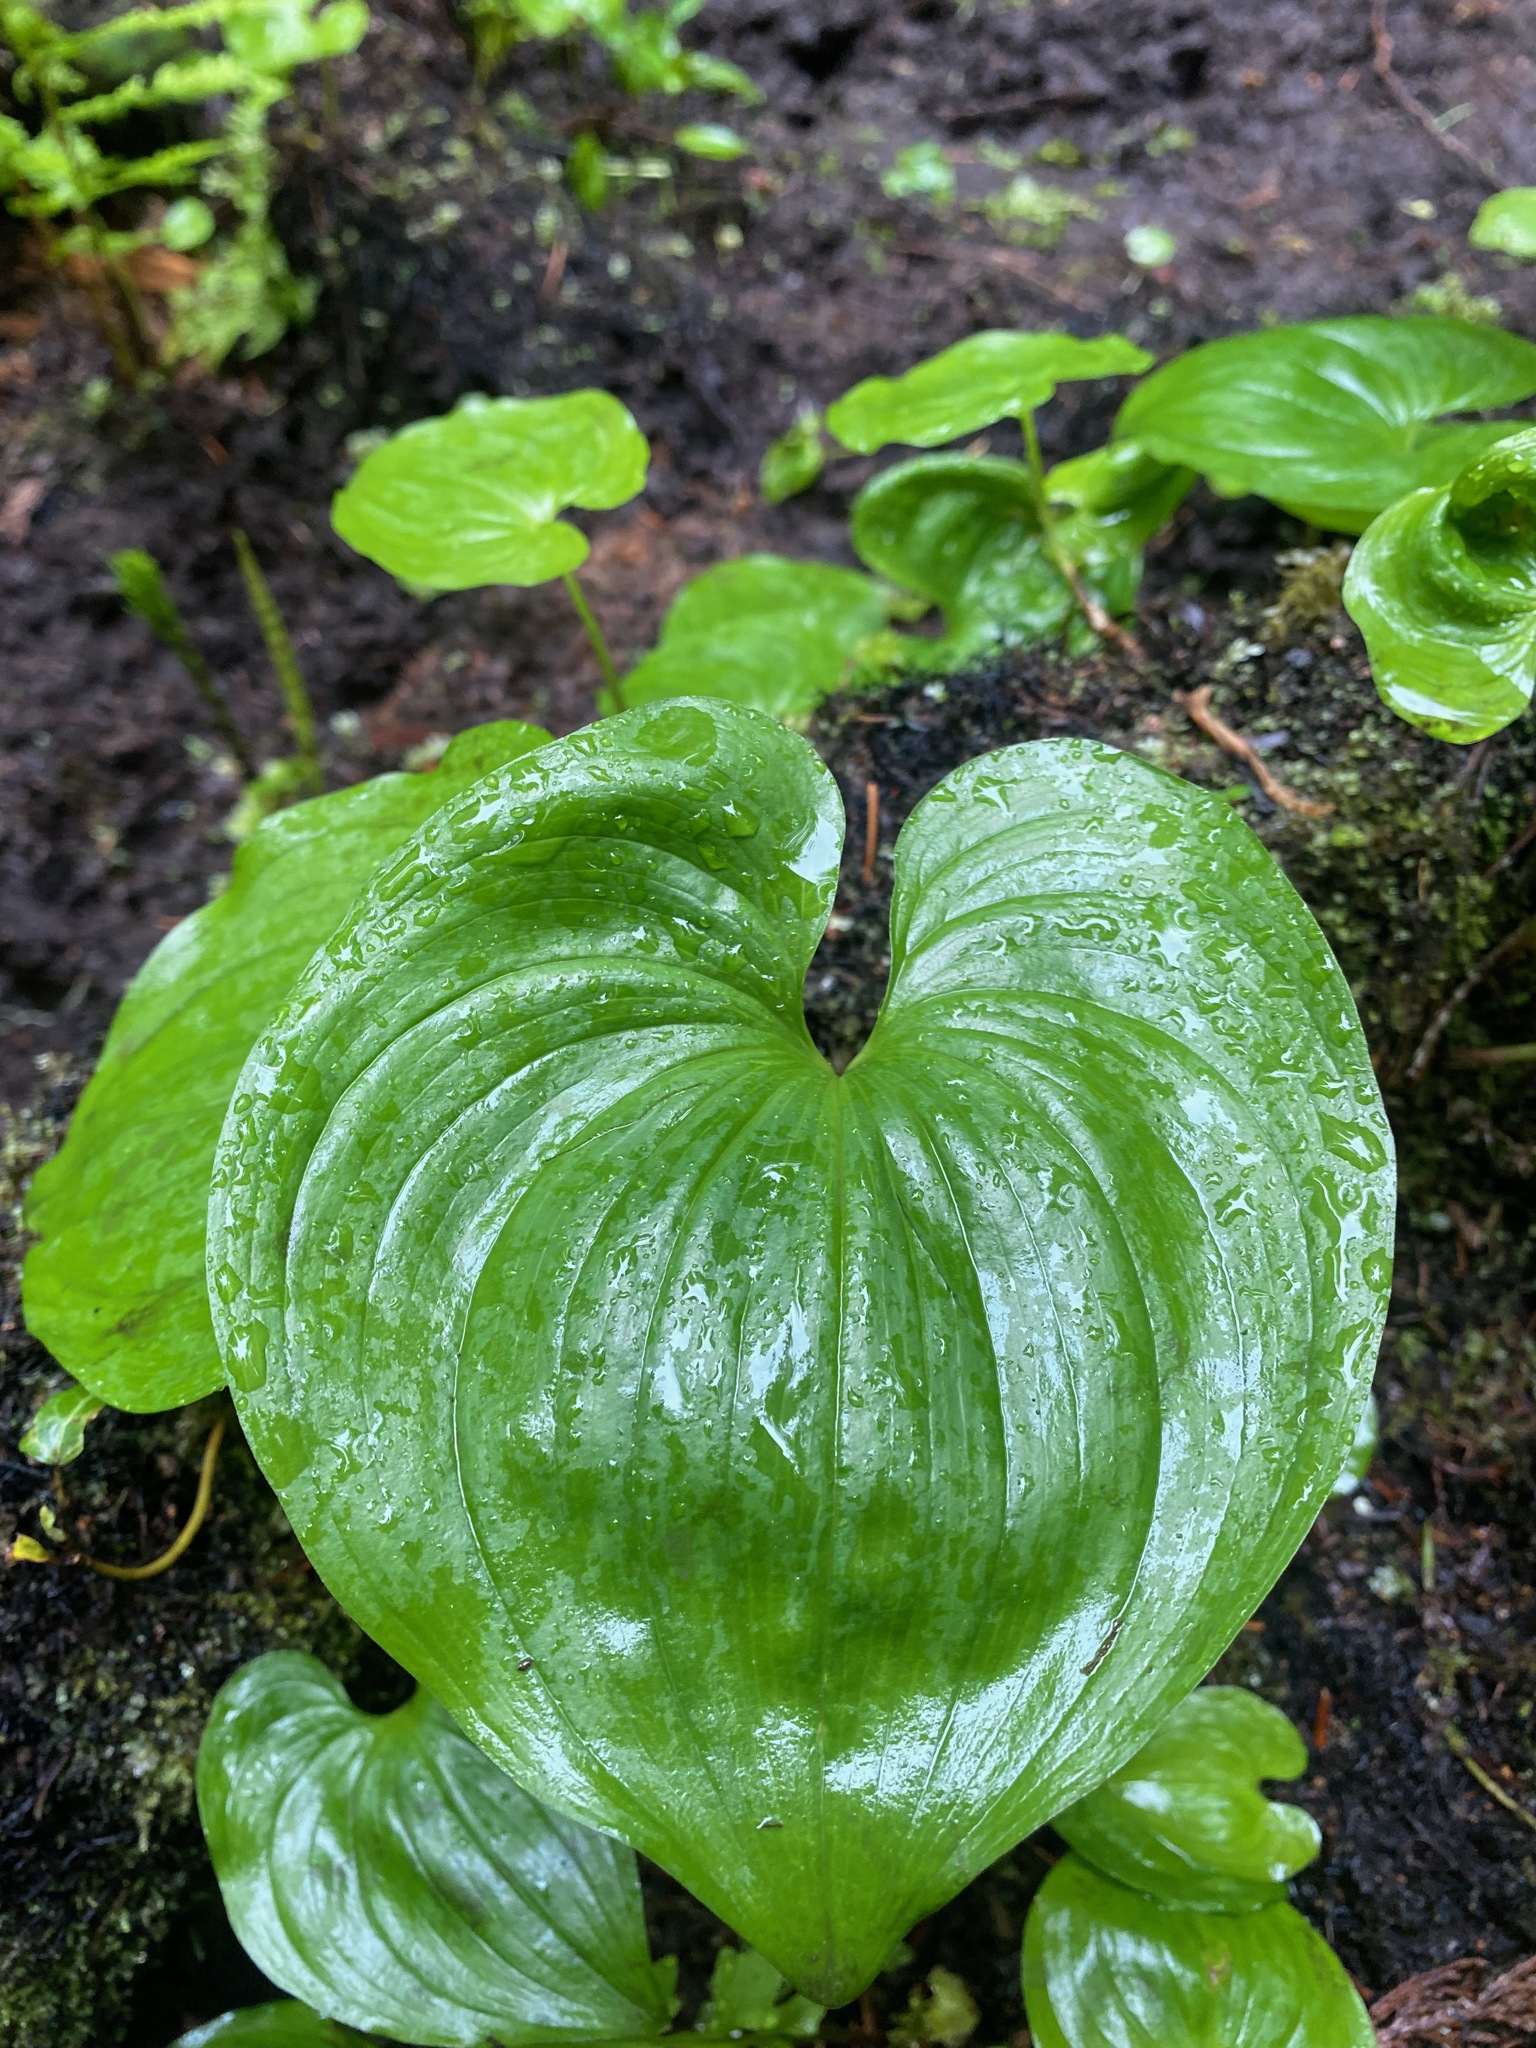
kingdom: Plantae
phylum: Tracheophyta
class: Liliopsida
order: Asparagales
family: Asparagaceae
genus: Maianthemum
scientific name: Maianthemum dilatatum
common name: False lily-of-the-valley
